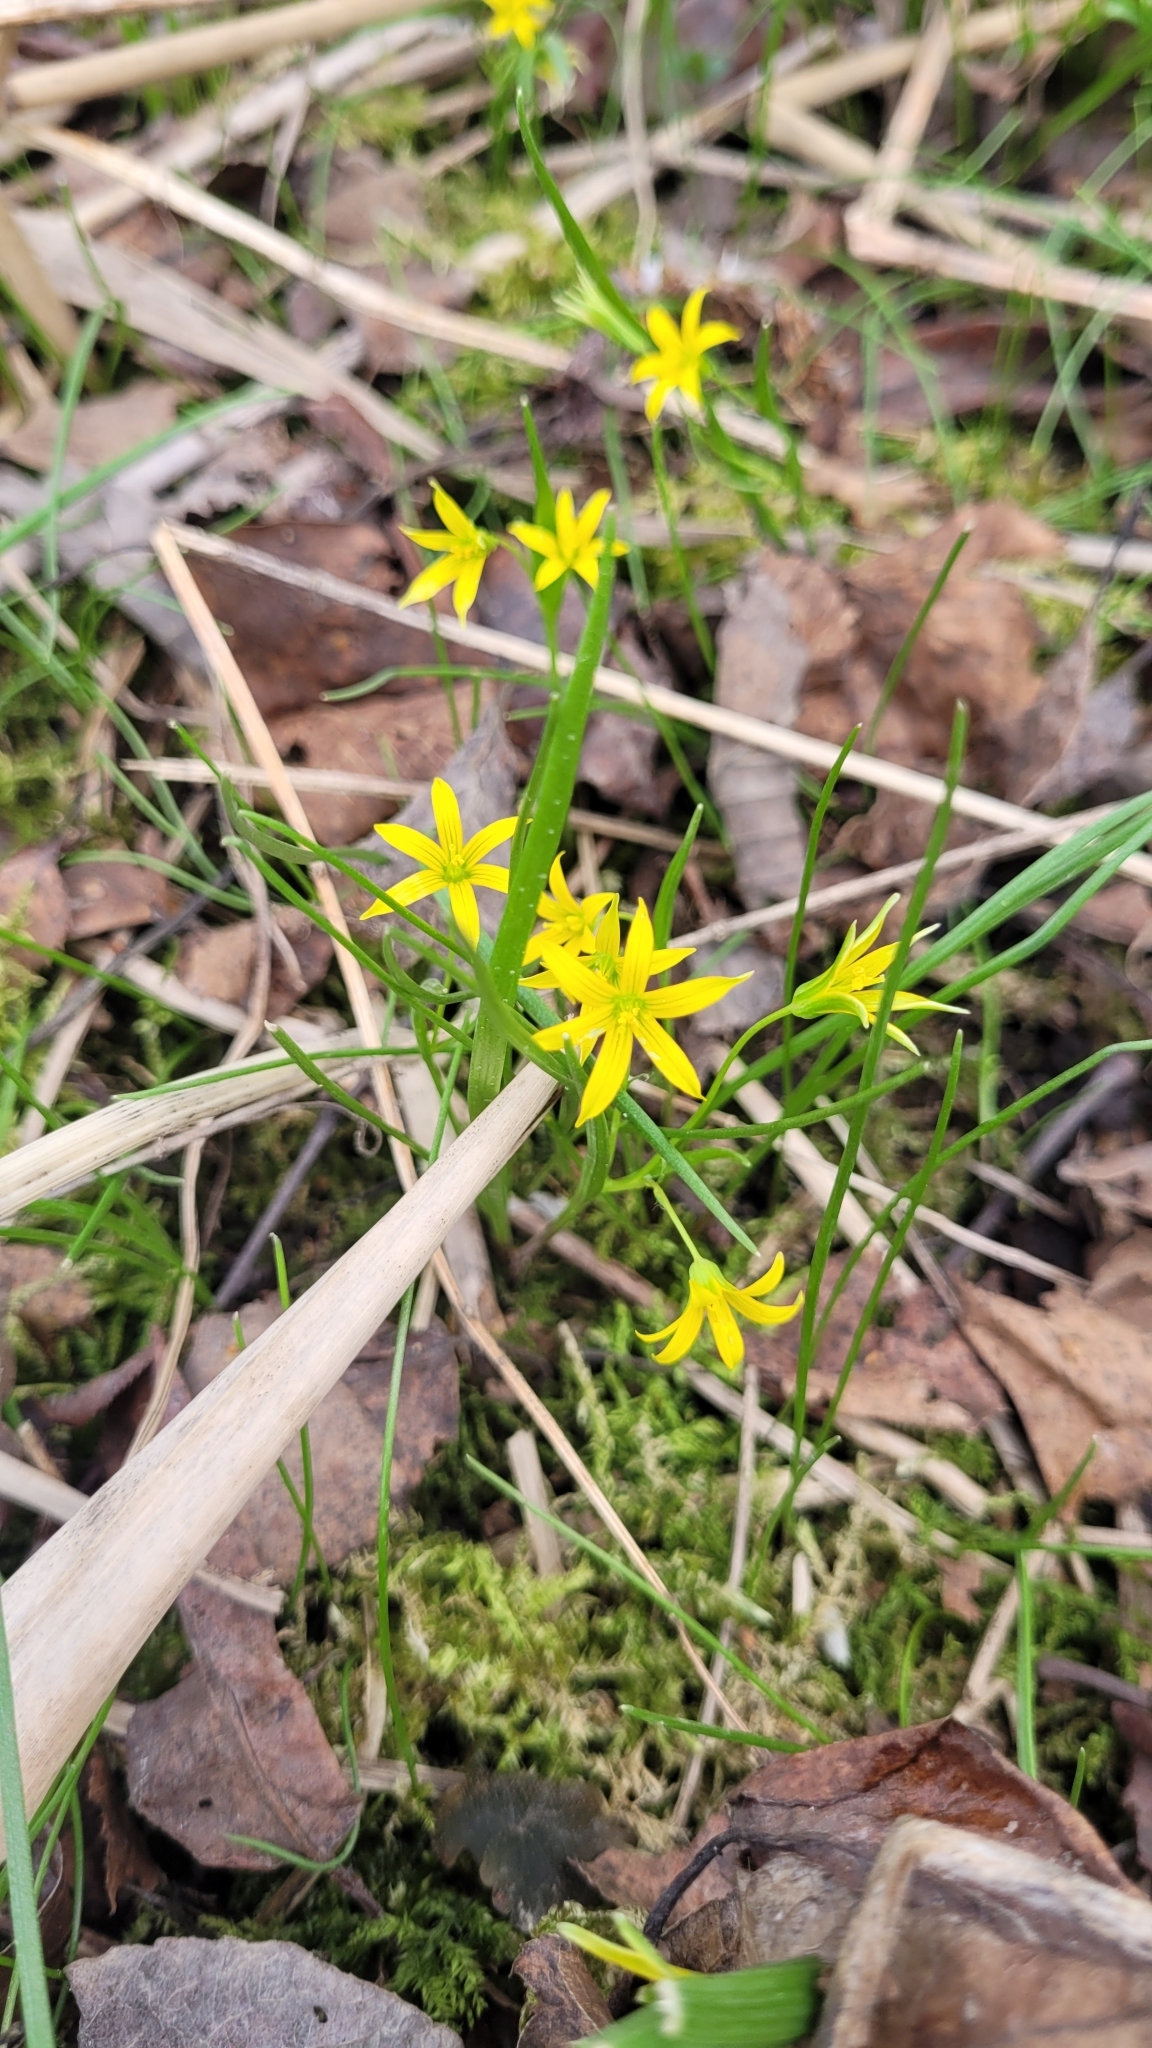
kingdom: Plantae
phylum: Tracheophyta
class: Liliopsida
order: Liliales
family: Liliaceae
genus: Gagea
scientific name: Gagea minima
